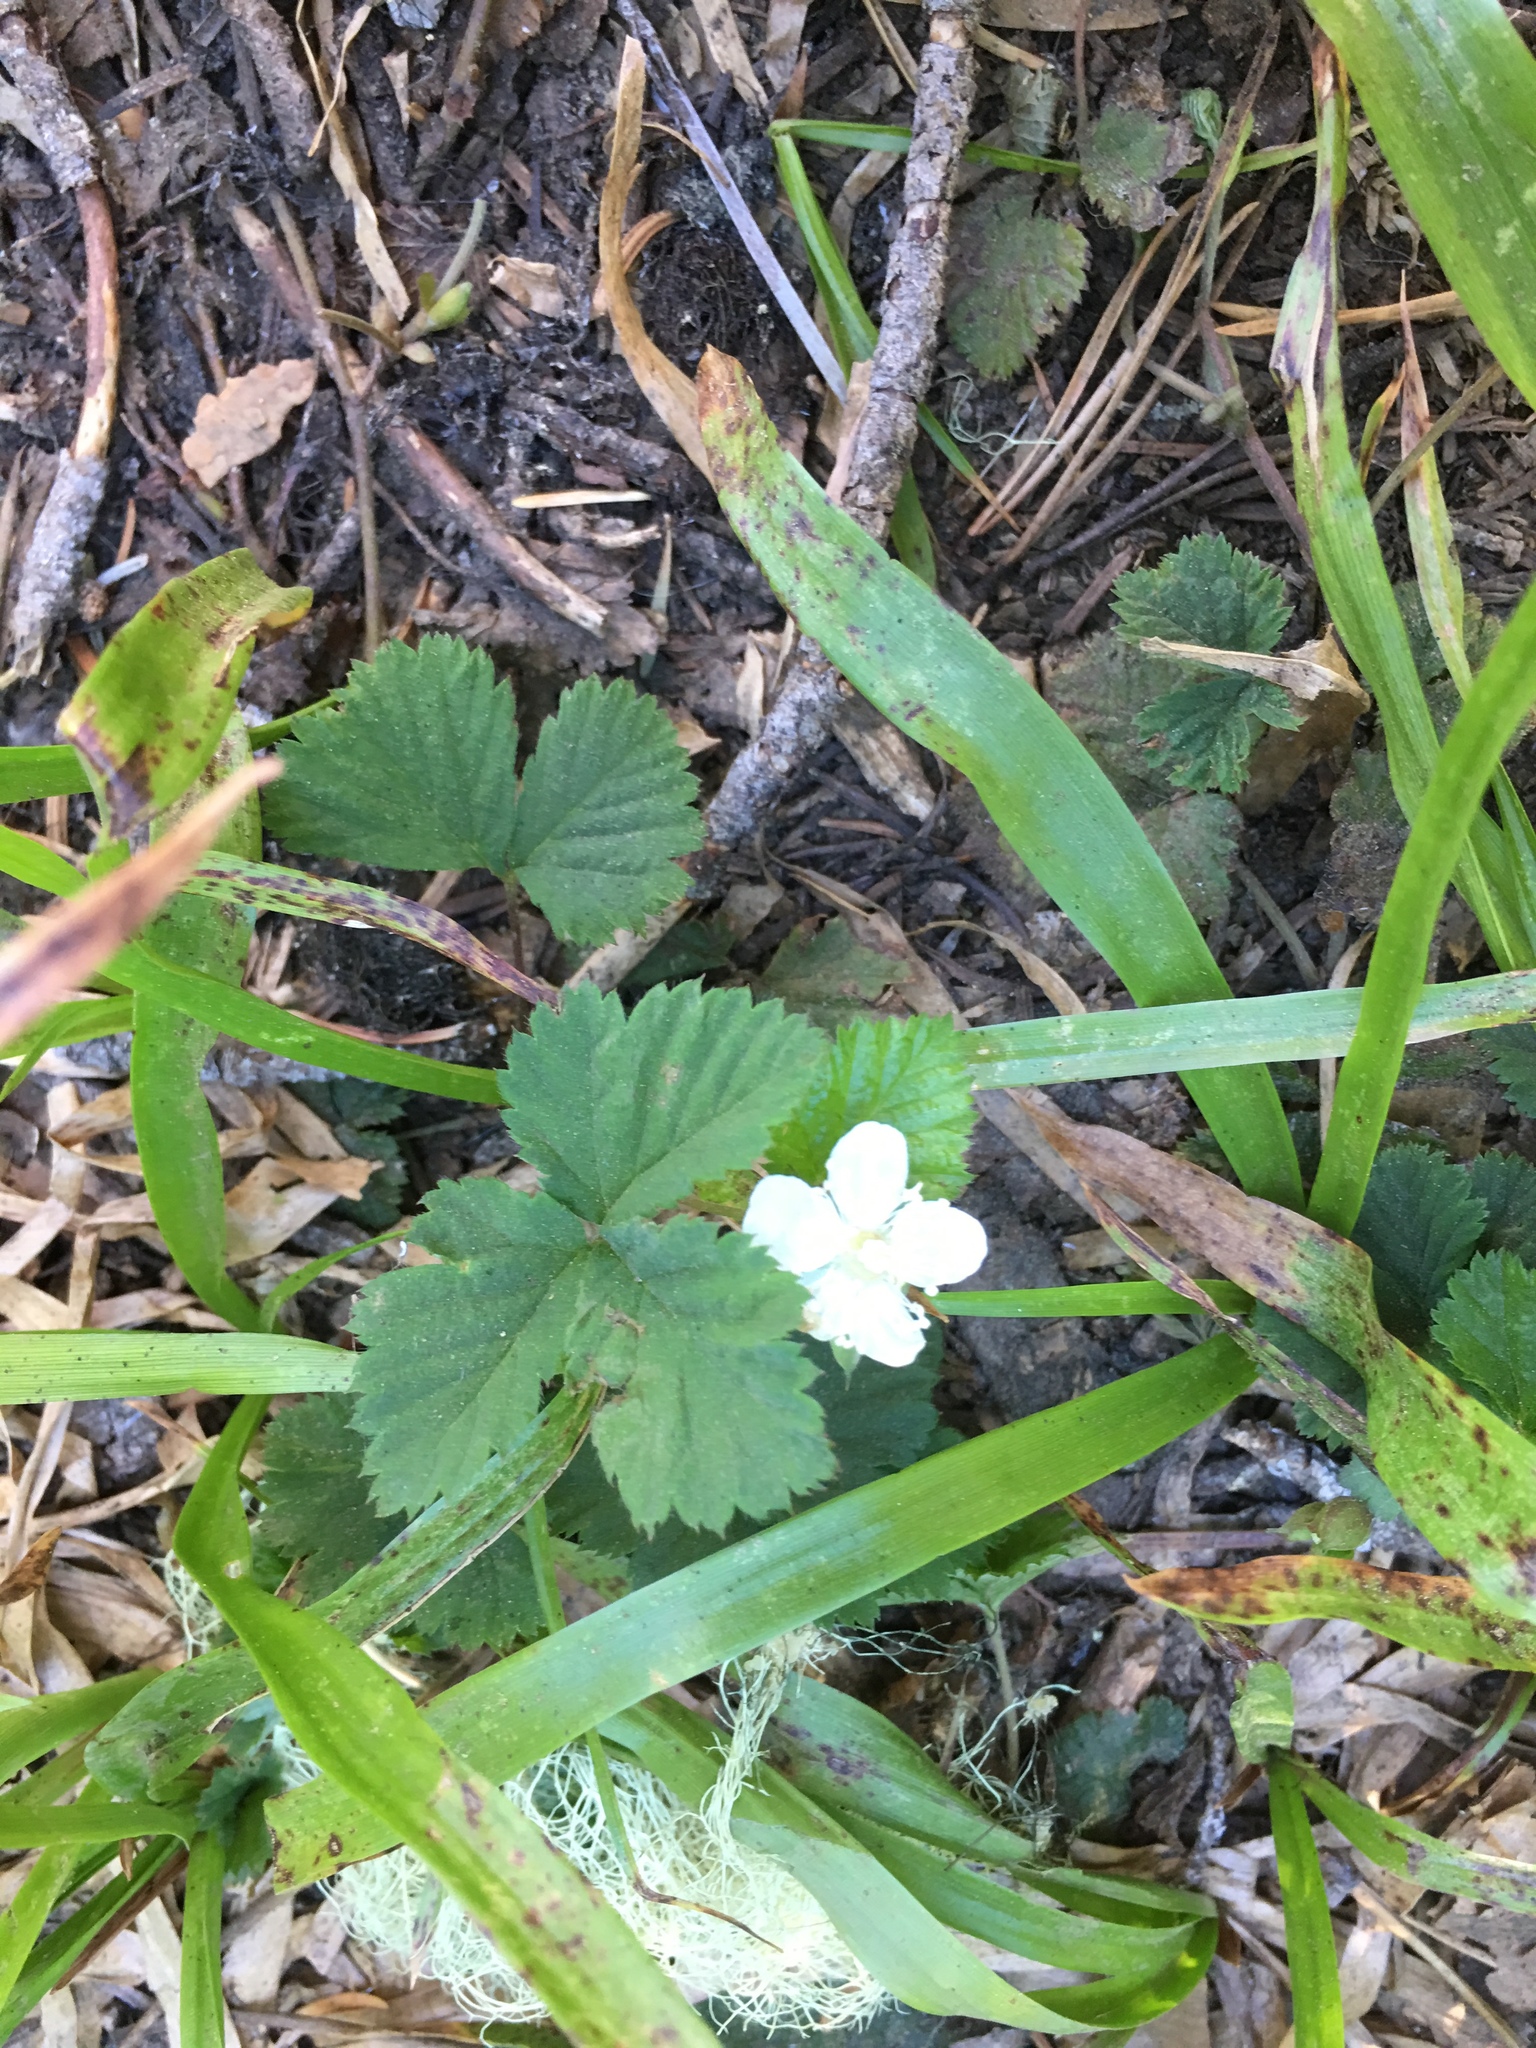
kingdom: Plantae
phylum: Tracheophyta
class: Magnoliopsida
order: Rosales
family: Rosaceae
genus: Rubus
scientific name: Rubus lasiococcus
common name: Dwarf bramble
